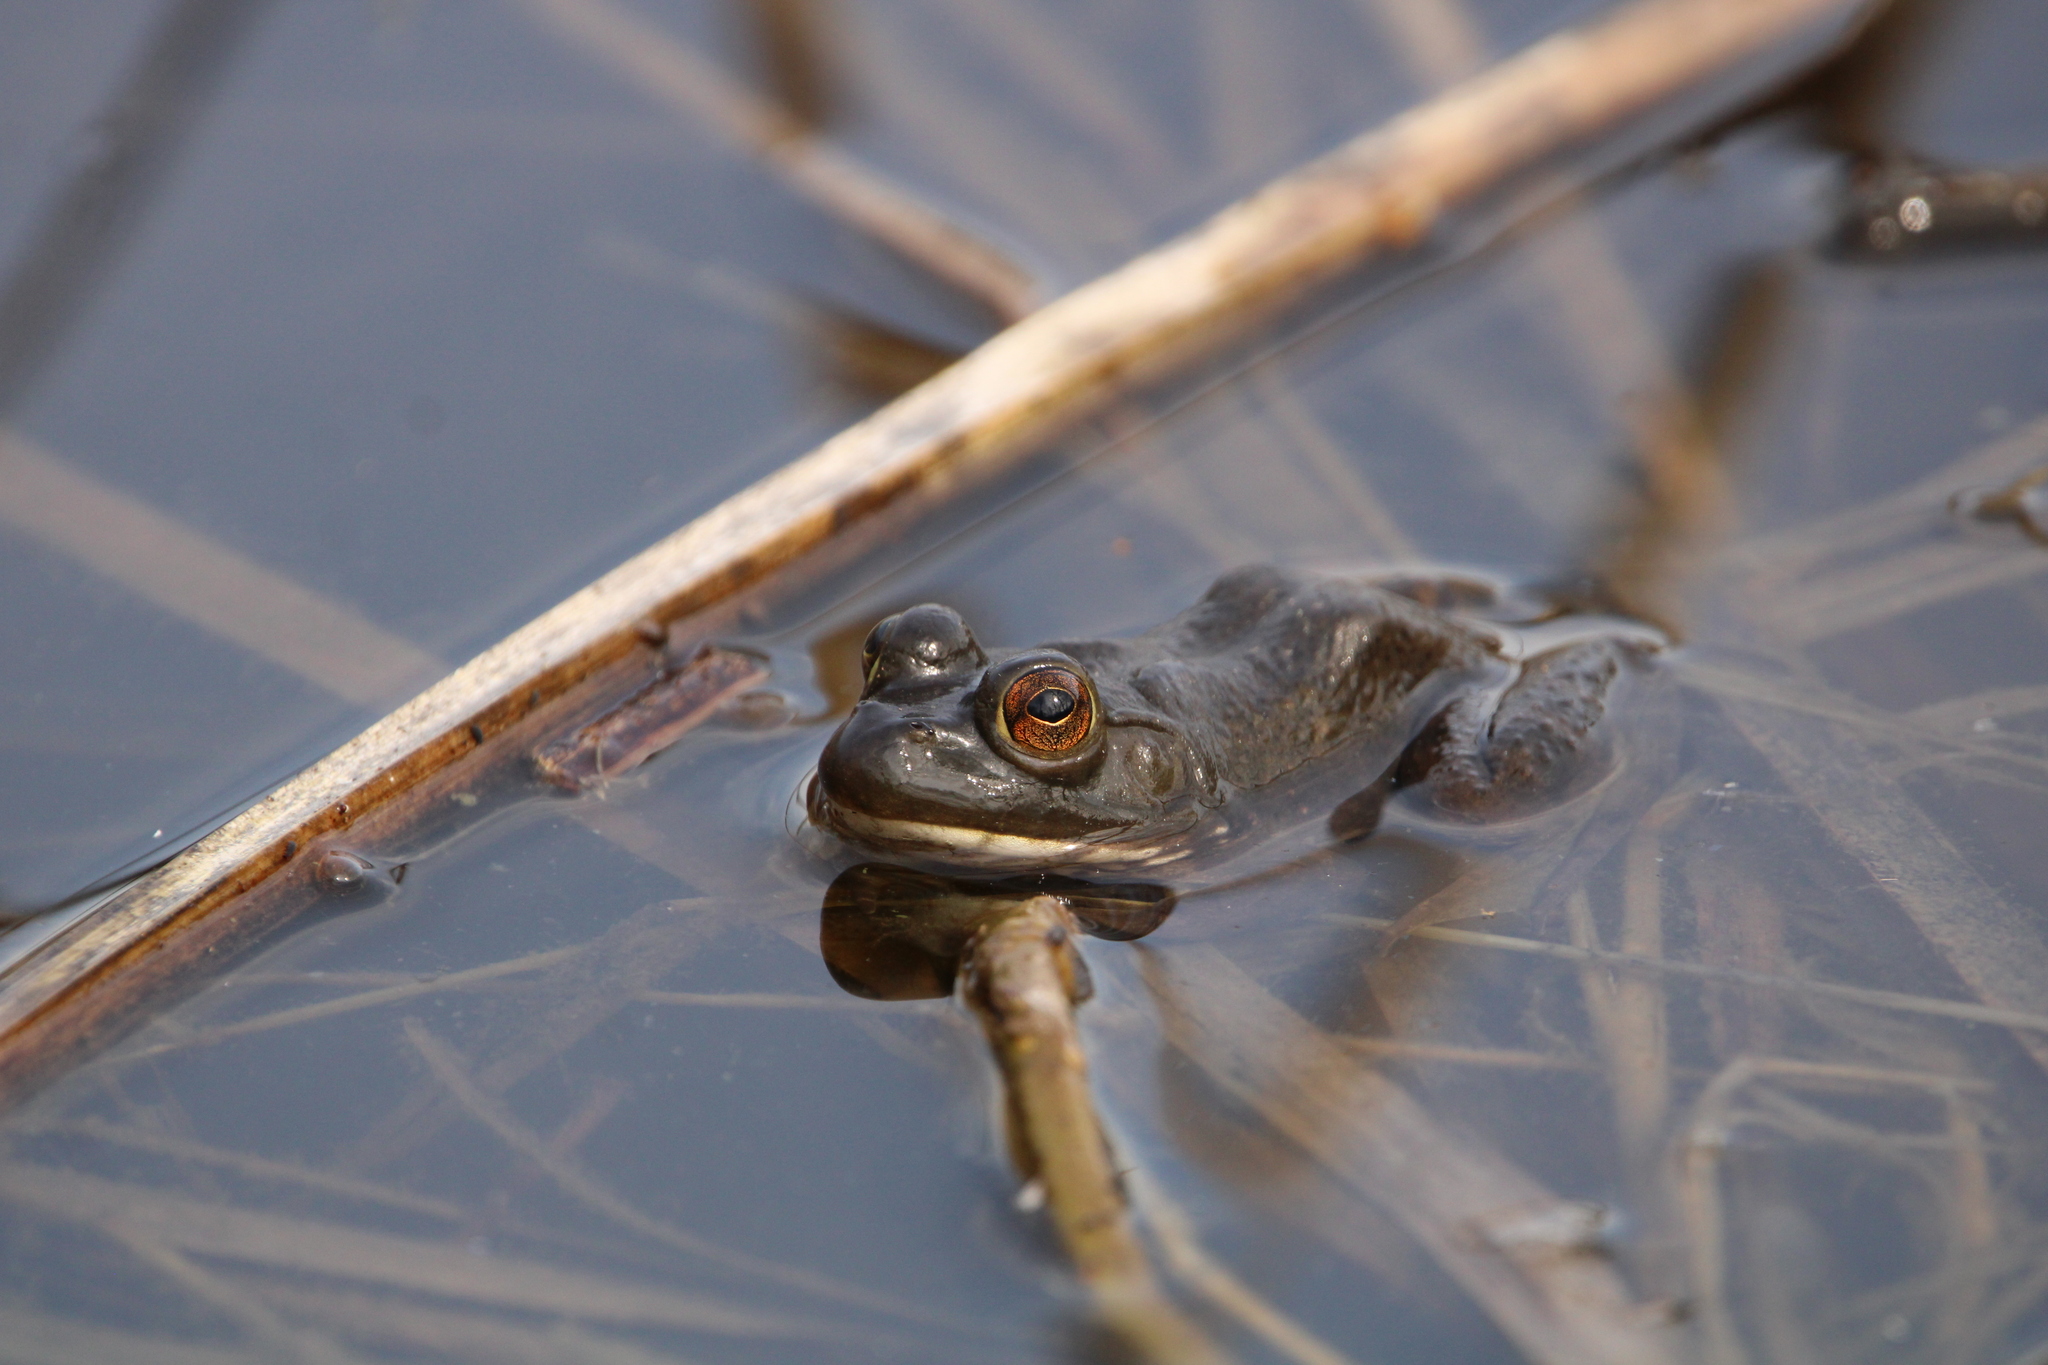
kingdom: Animalia
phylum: Chordata
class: Amphibia
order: Anura
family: Ranidae
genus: Lithobates
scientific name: Lithobates catesbeianus
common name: American bullfrog
